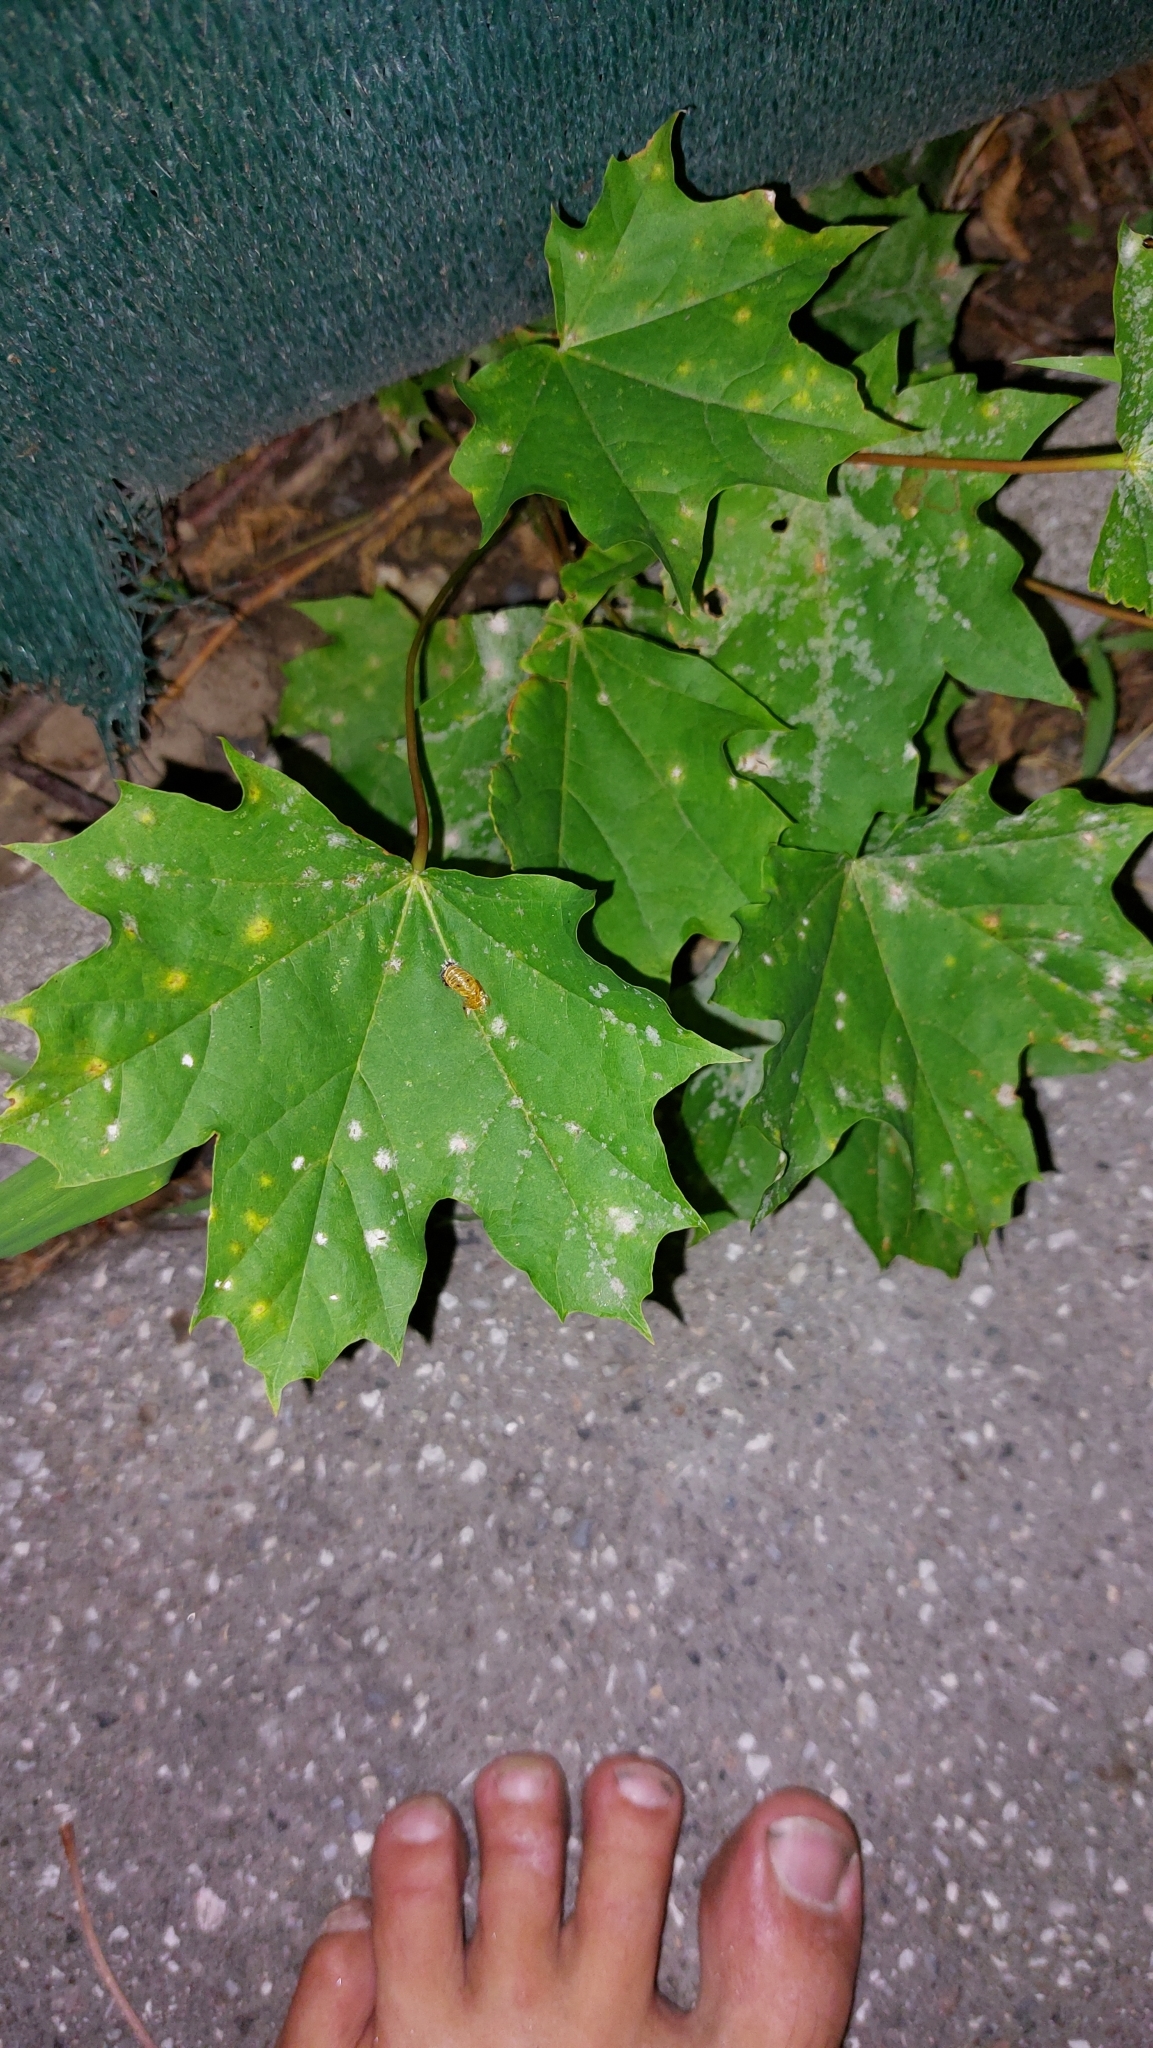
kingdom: Fungi
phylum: Ascomycota
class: Leotiomycetes
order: Helotiales
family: Erysiphaceae
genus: Sawadaea
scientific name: Sawadaea tulasnei
